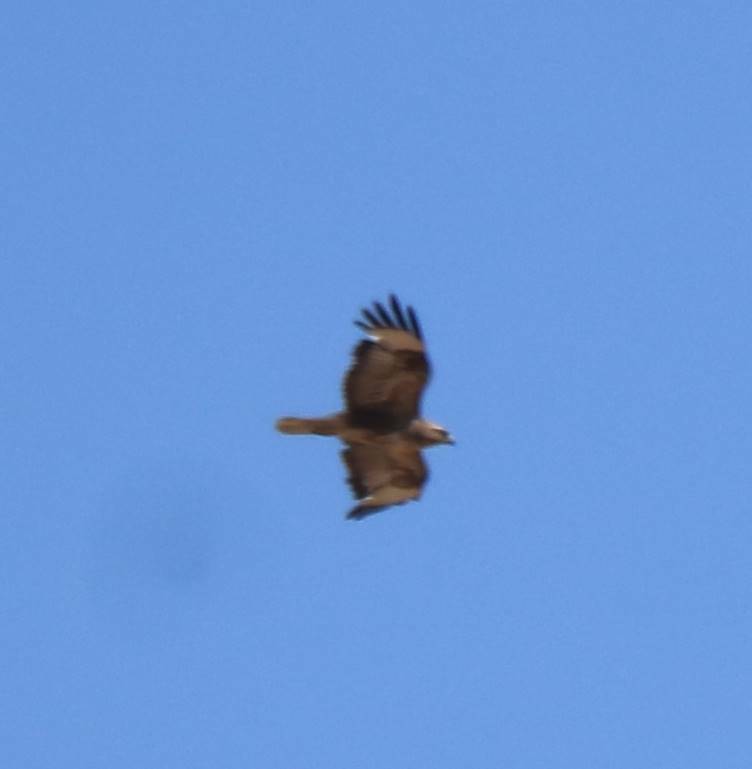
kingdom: Animalia
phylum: Chordata
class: Aves
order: Accipitriformes
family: Accipitridae
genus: Buteo
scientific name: Buteo rufinus
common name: Long-legged buzzard
